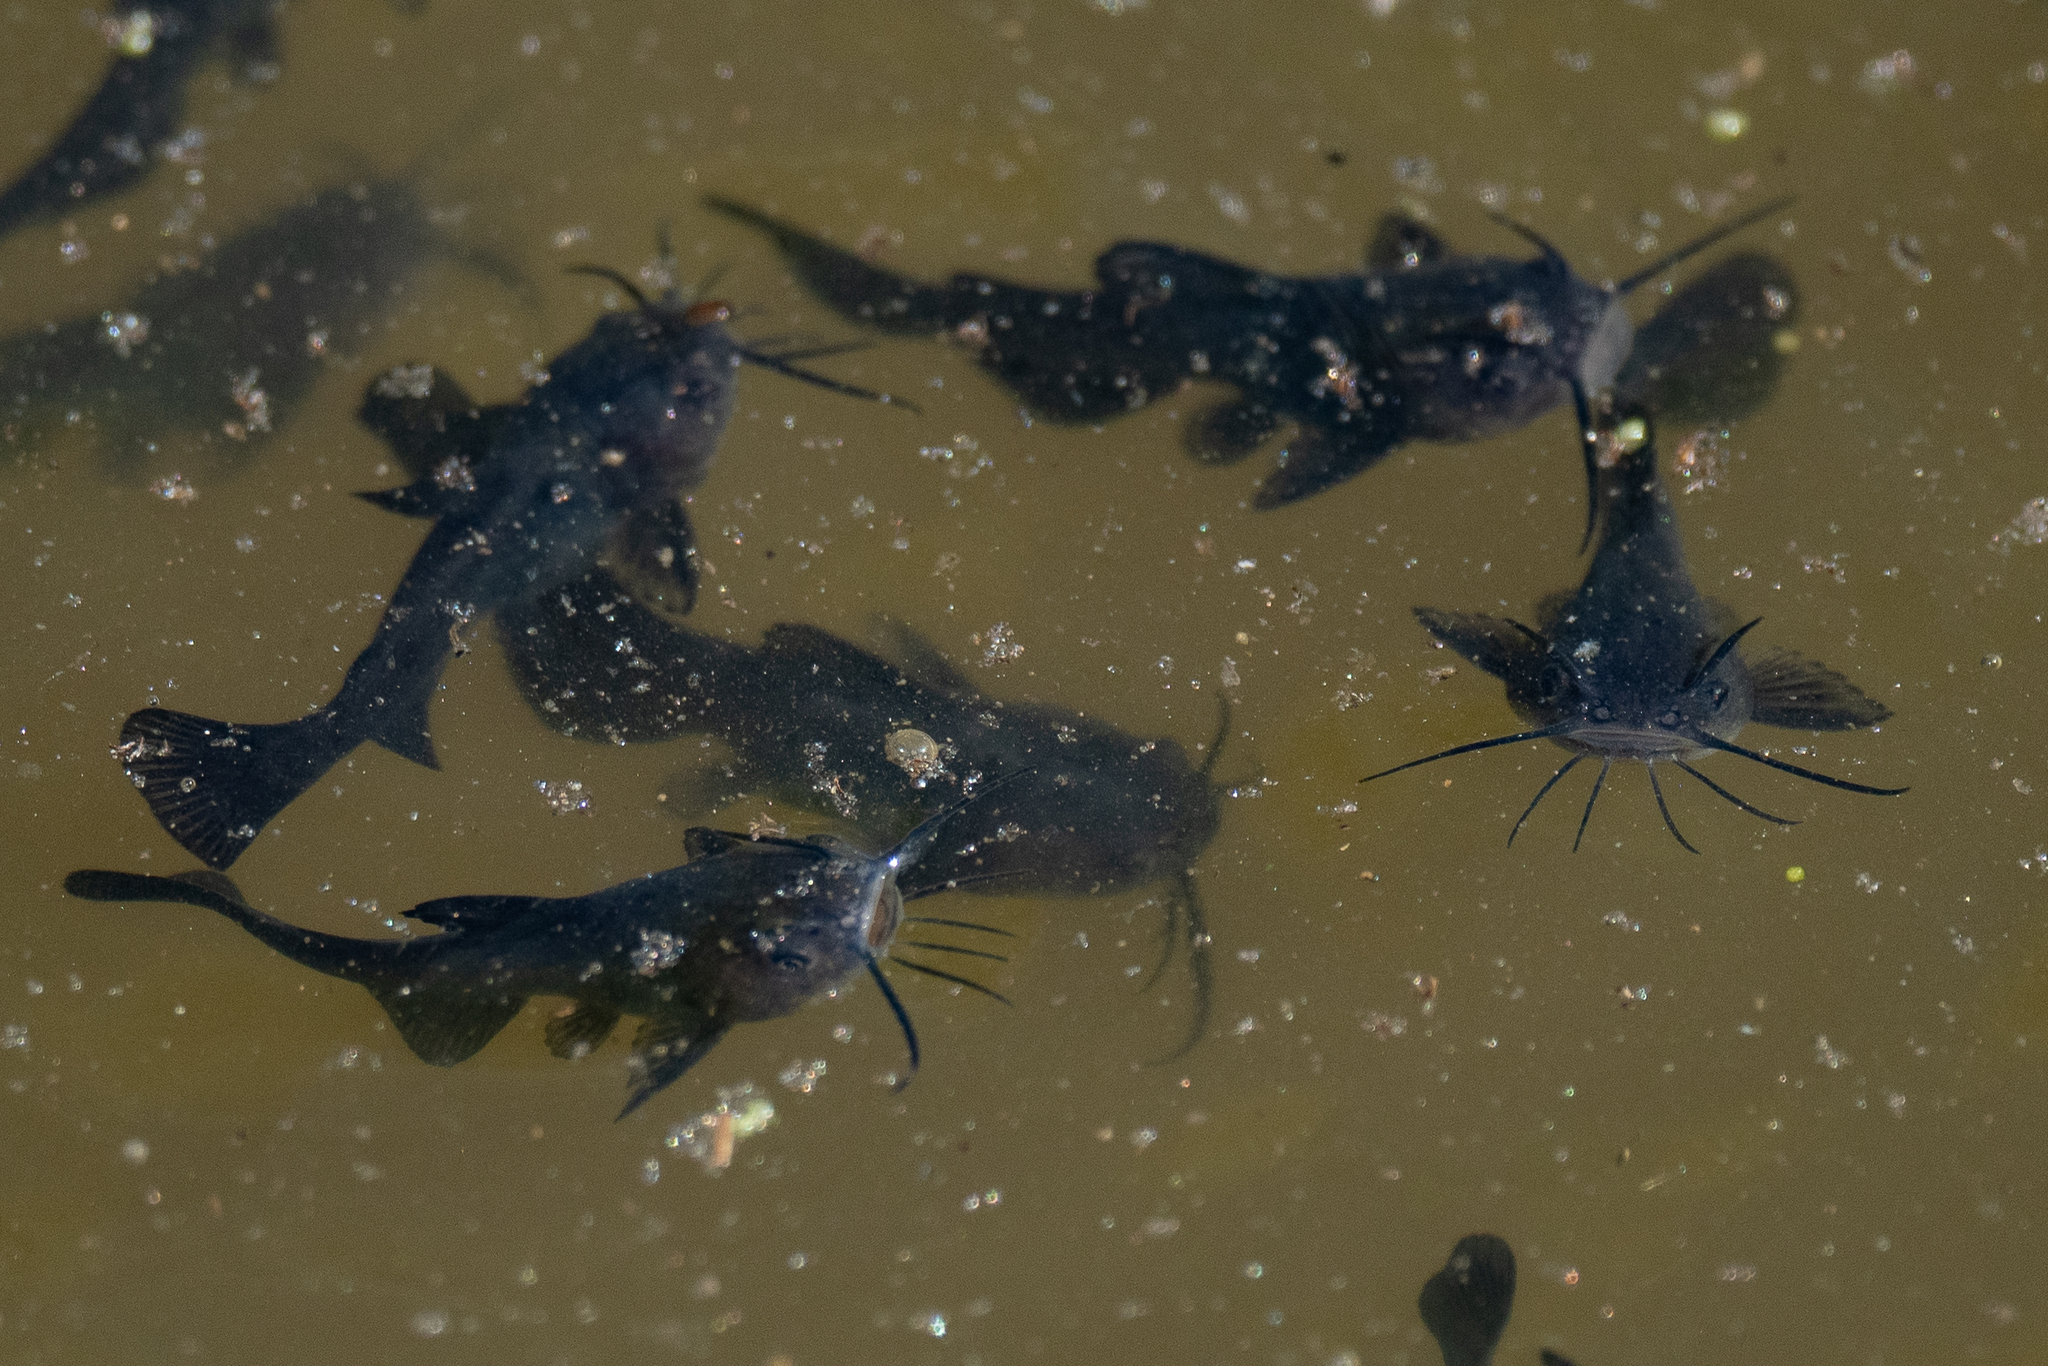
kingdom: Animalia
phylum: Chordata
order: Siluriformes
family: Ictaluridae
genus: Ameiurus
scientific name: Ameiurus melas
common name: Black bullhead
